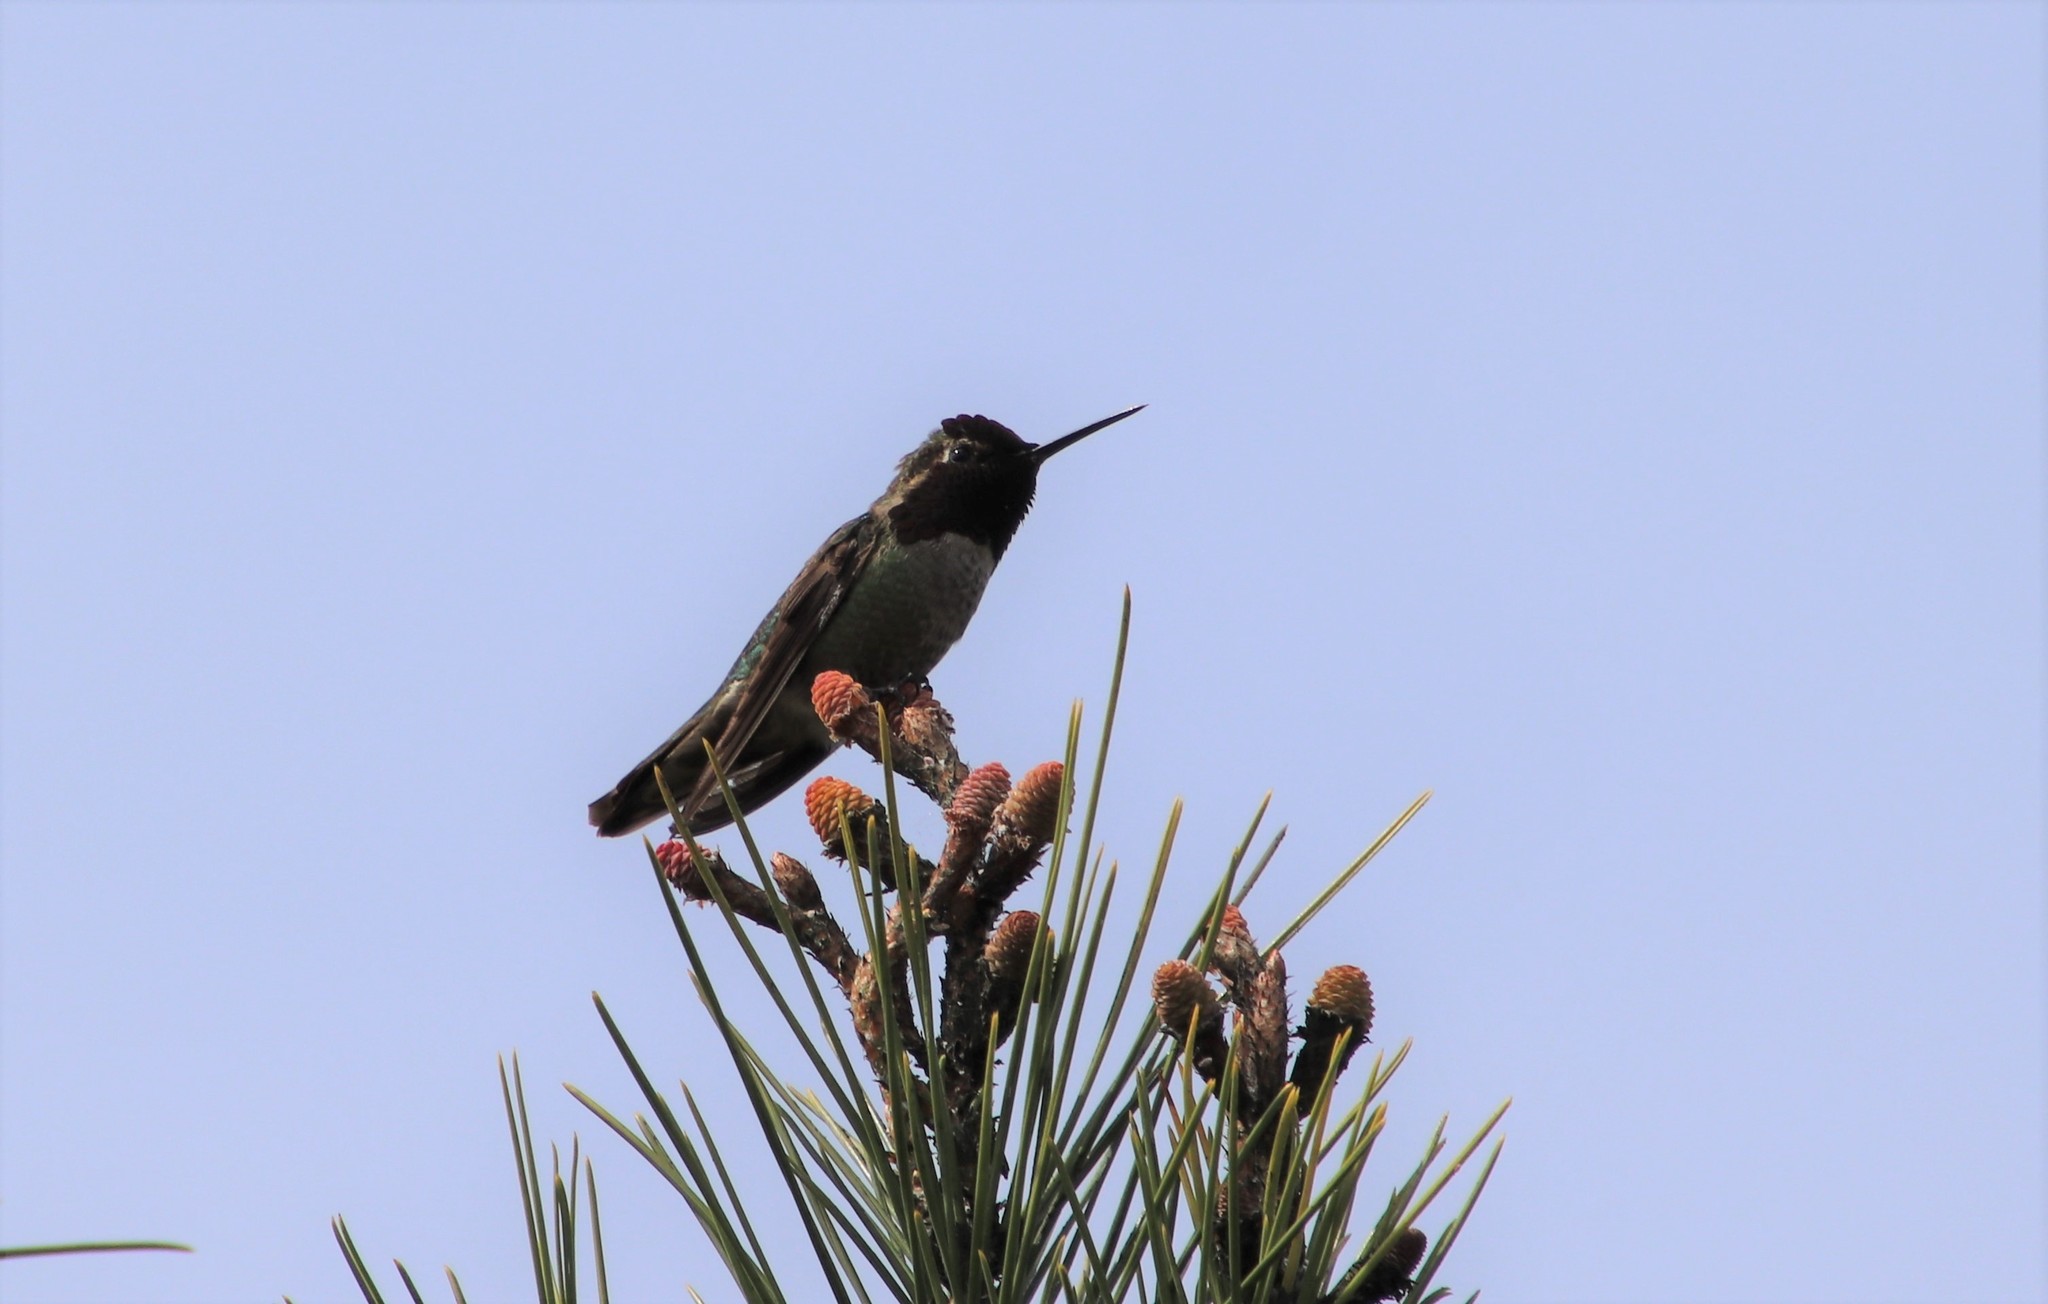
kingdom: Animalia
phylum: Chordata
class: Aves
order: Apodiformes
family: Trochilidae
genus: Calypte
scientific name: Calypte anna
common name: Anna's hummingbird
